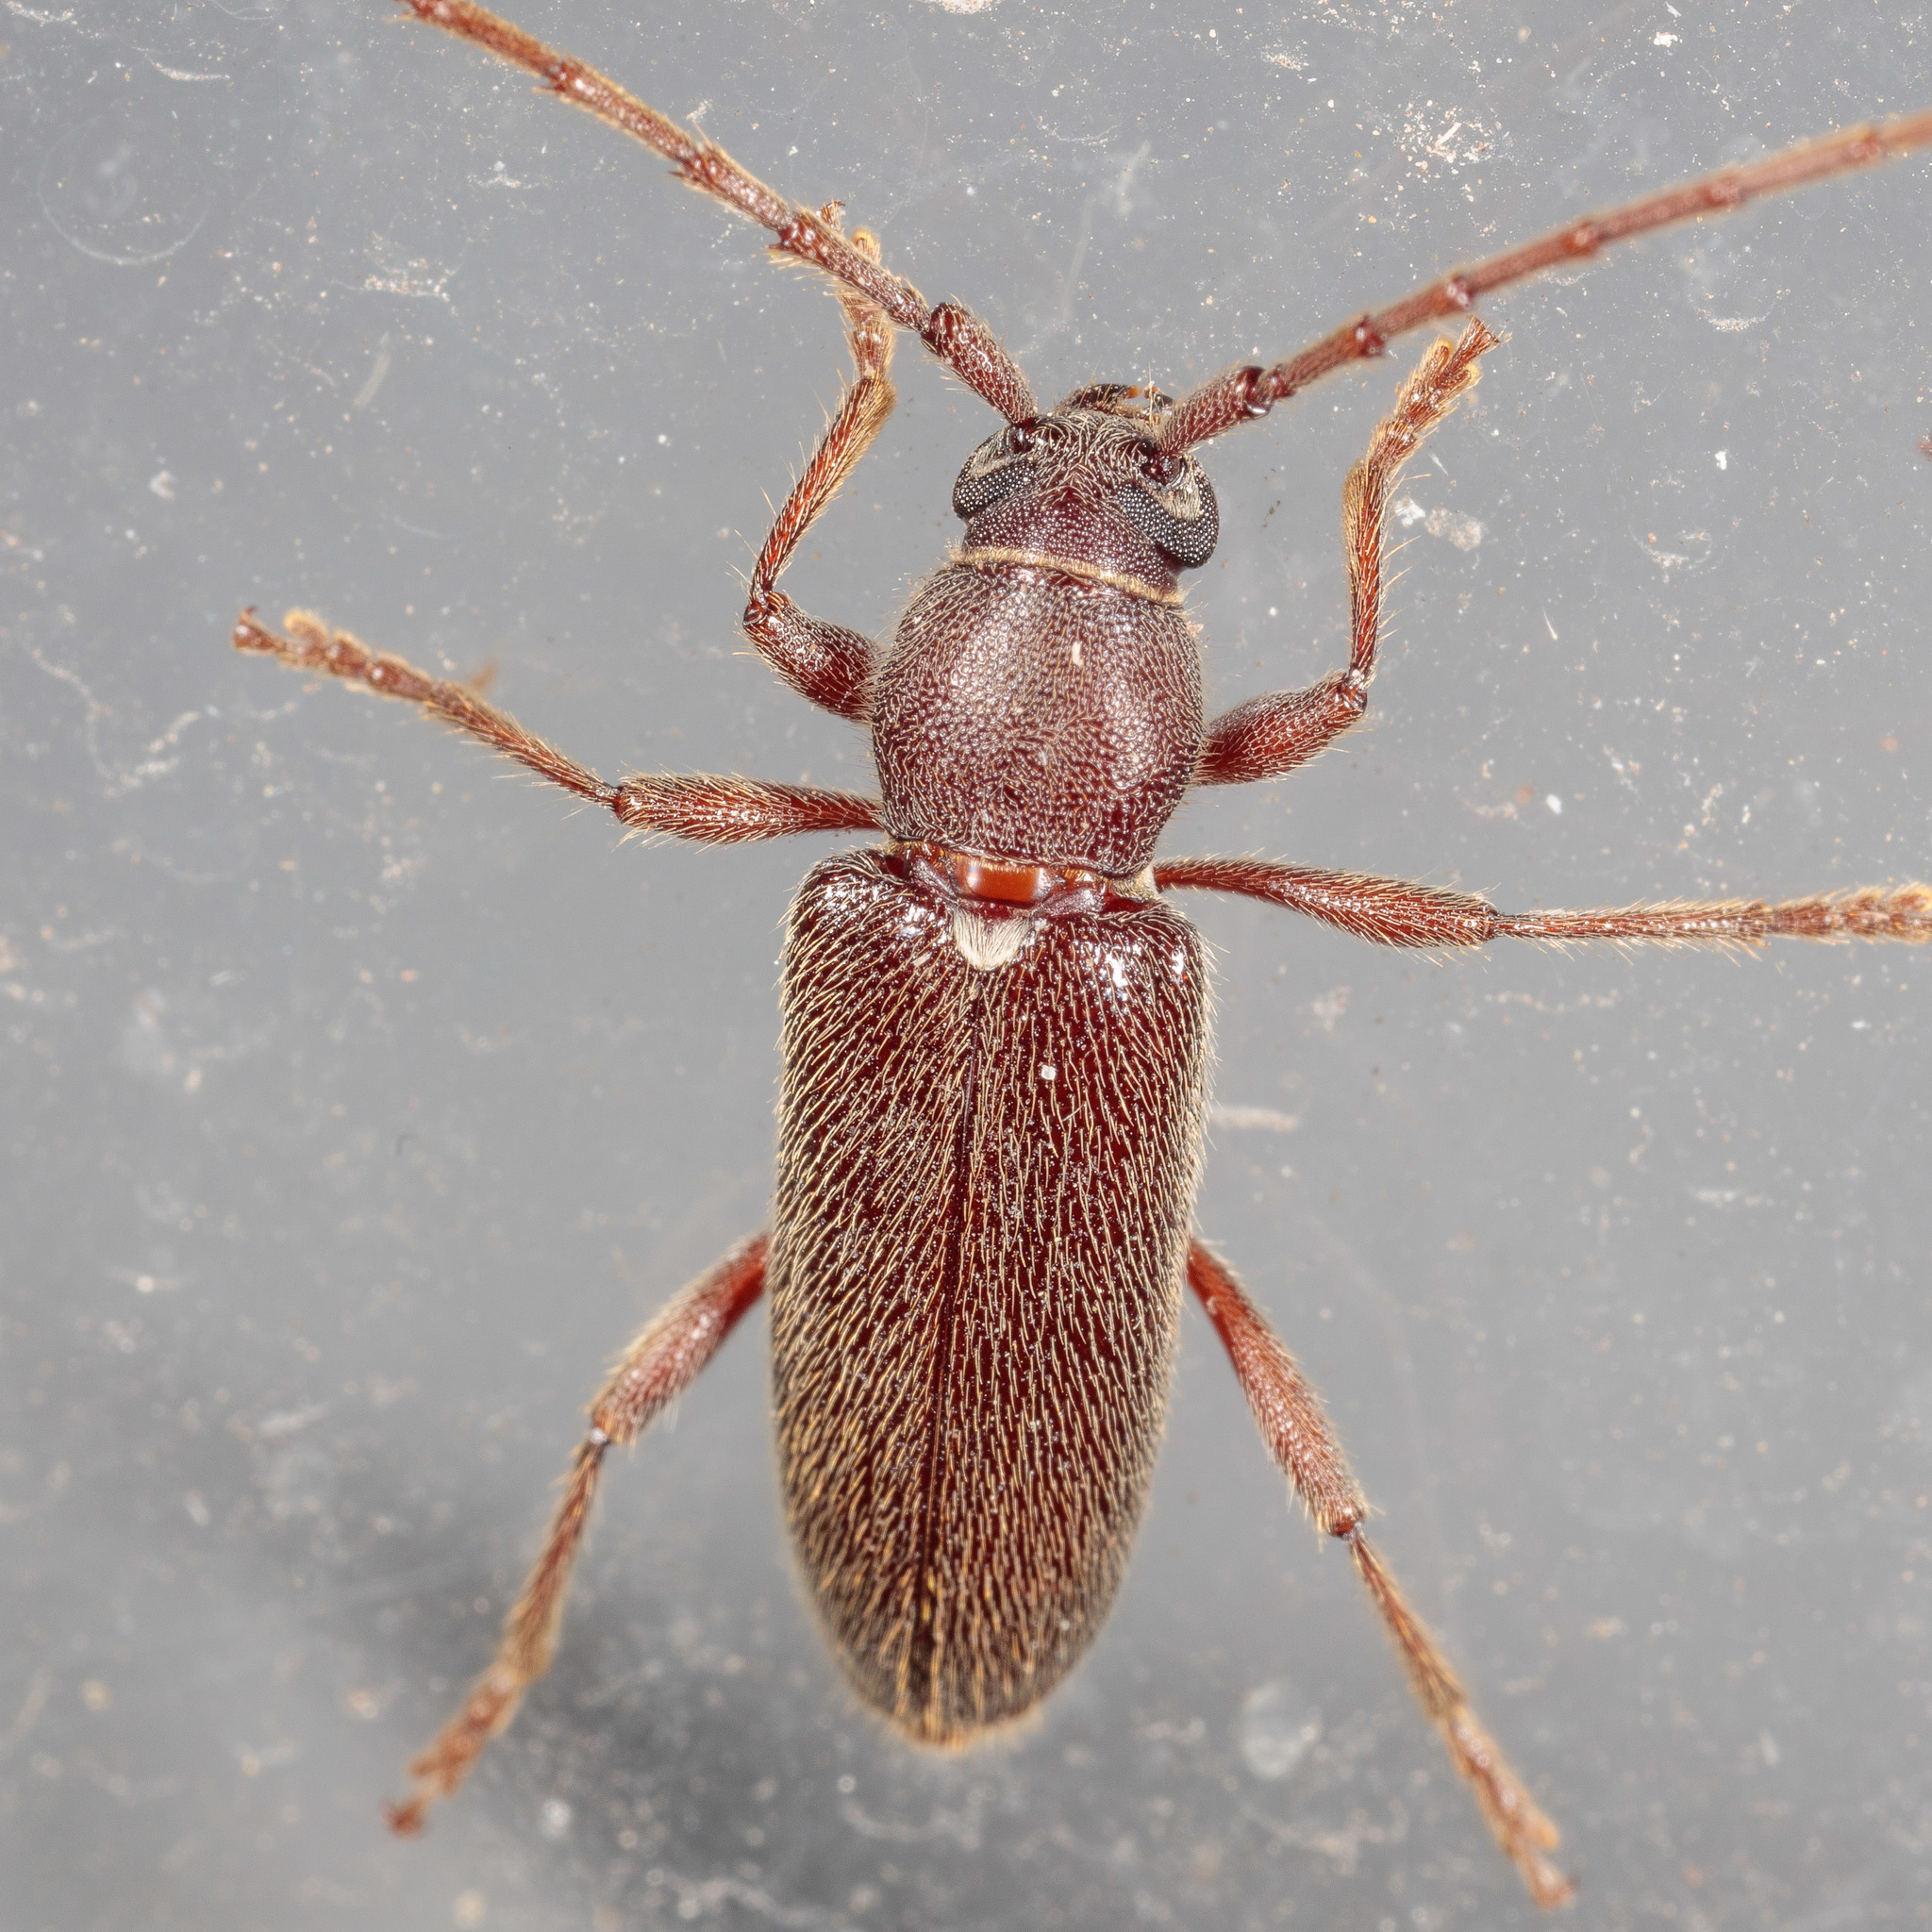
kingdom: Animalia
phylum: Arthropoda
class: Insecta
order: Coleoptera
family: Cerambycidae
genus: Anelaphus
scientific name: Anelaphus moestus
